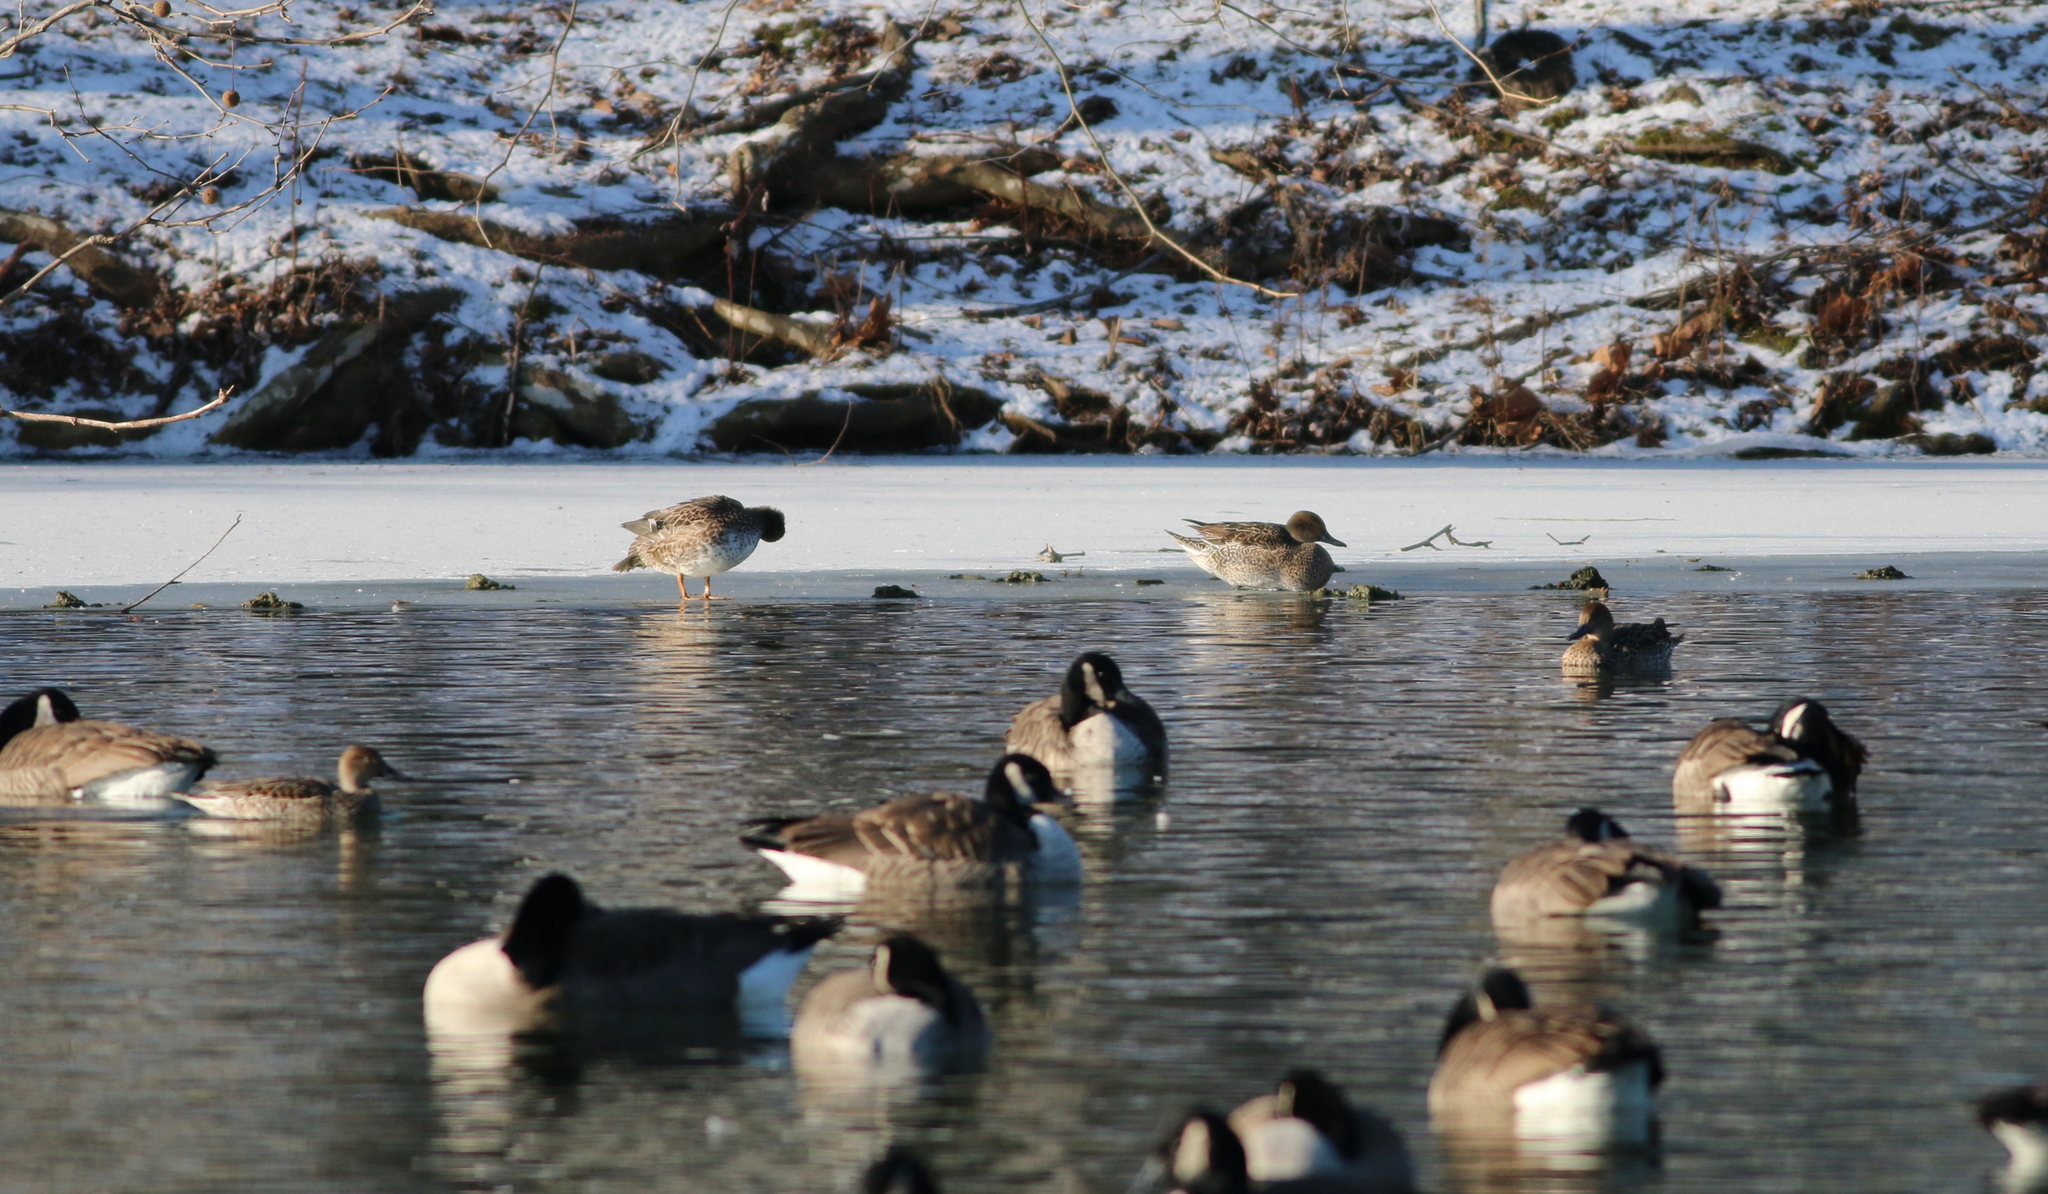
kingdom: Animalia
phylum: Chordata
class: Aves
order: Anseriformes
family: Anatidae
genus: Anas
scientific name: Anas acuta
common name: Northern pintail
